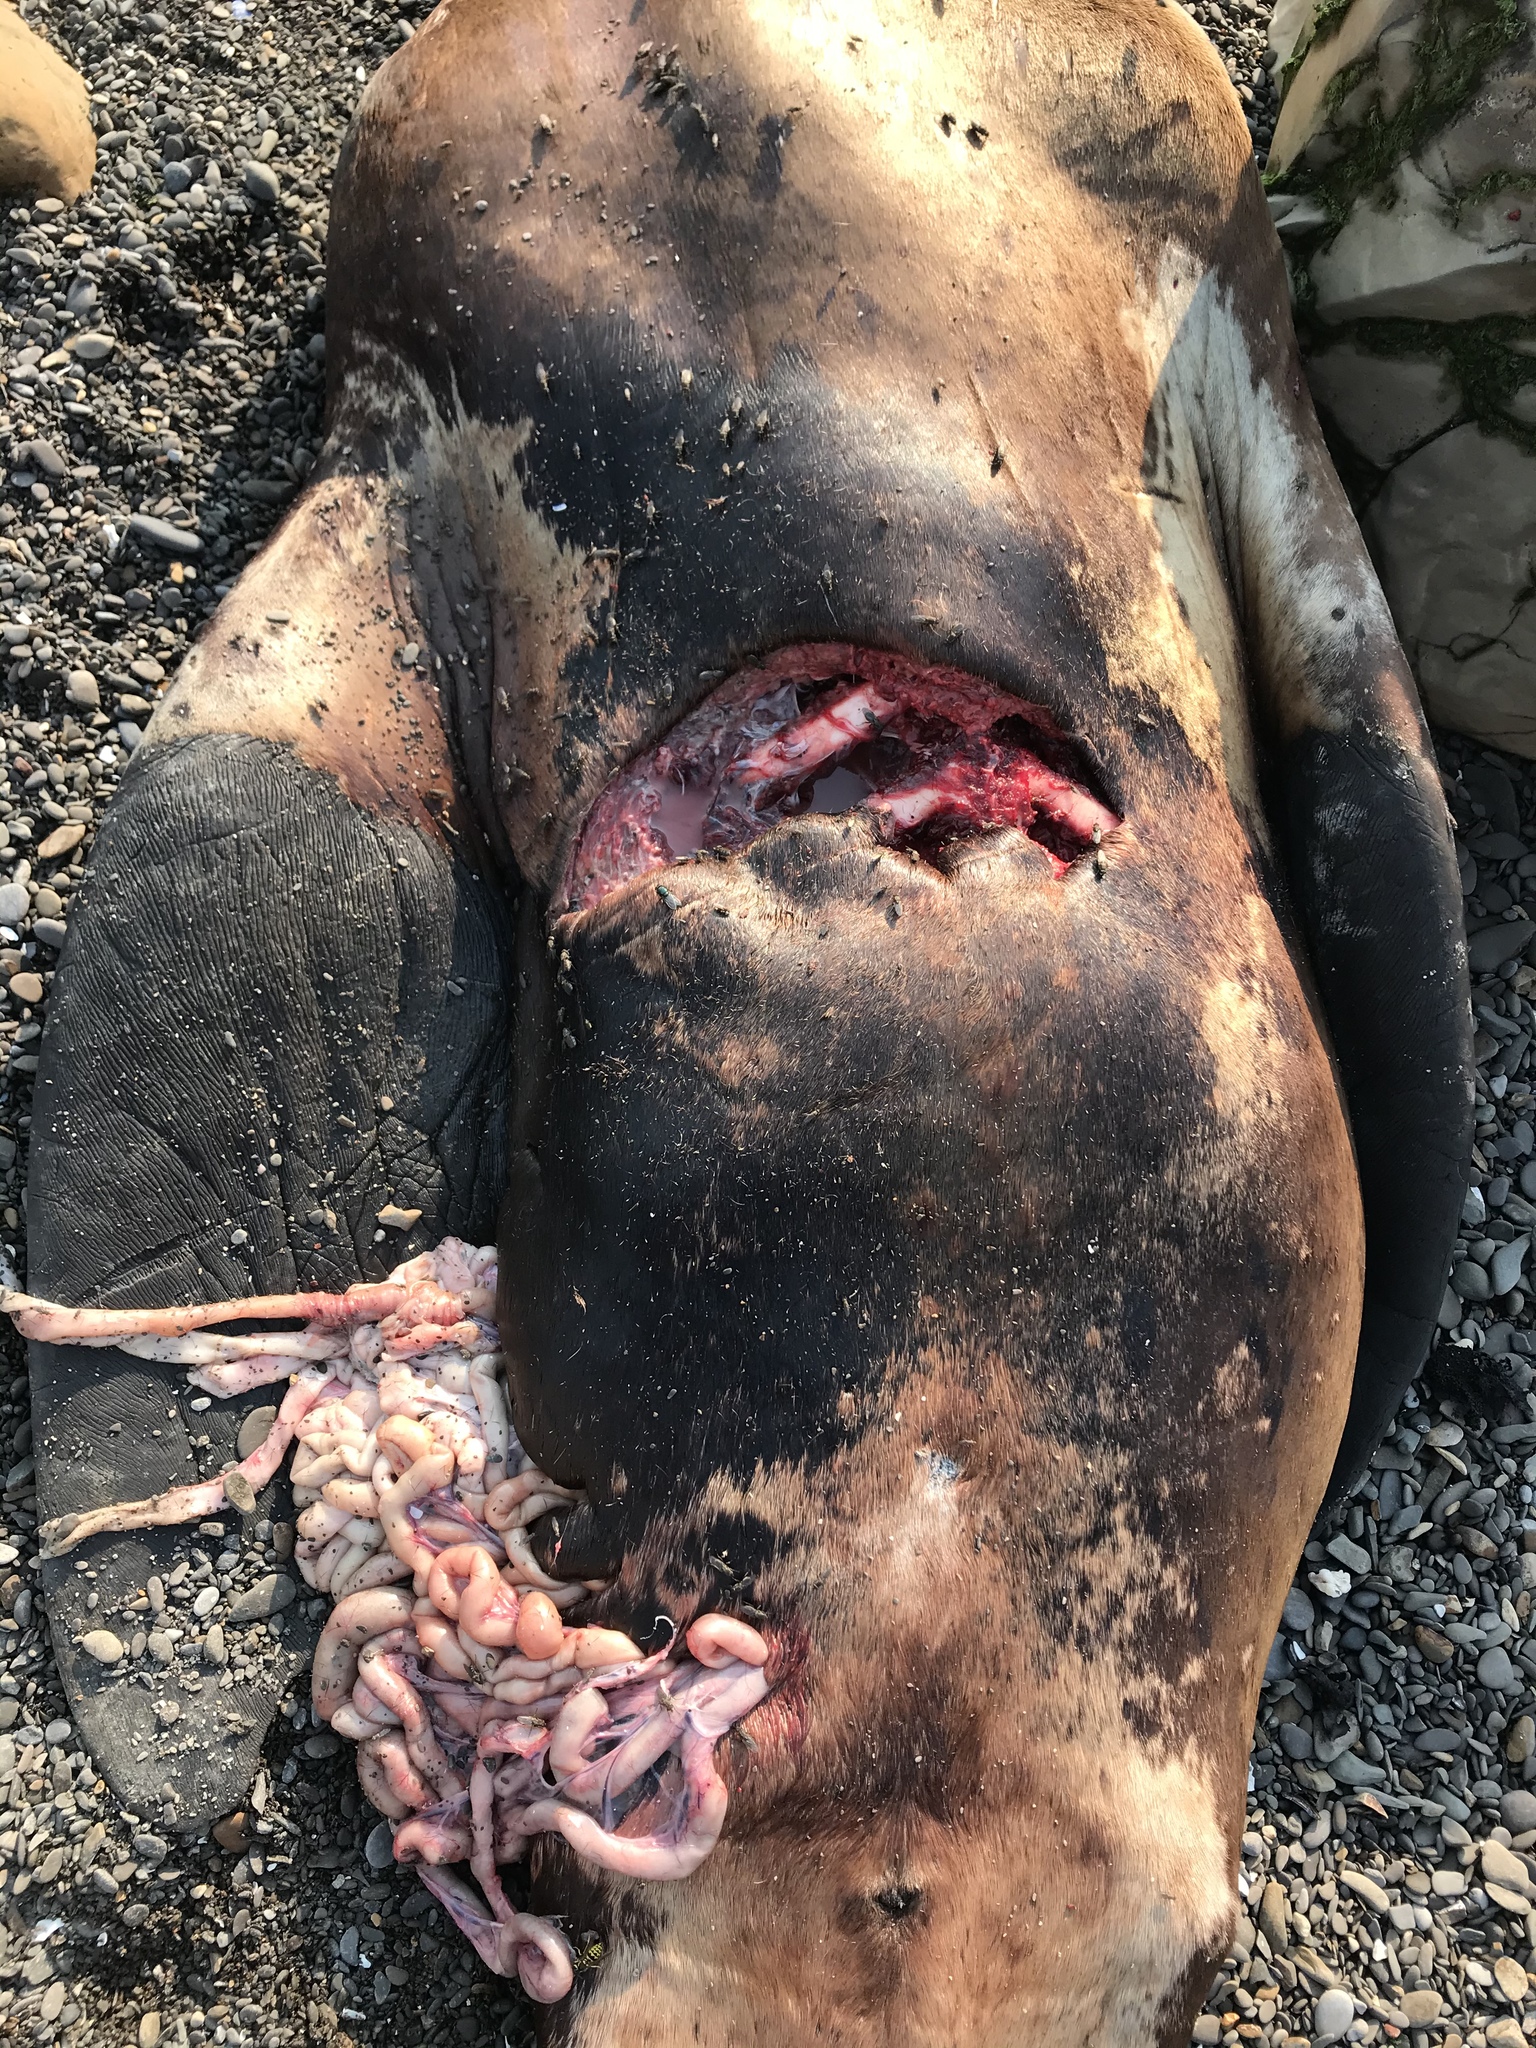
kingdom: Animalia
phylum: Chordata
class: Mammalia
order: Carnivora
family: Otariidae
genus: Zalophus
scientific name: Zalophus californianus
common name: California sea lion
